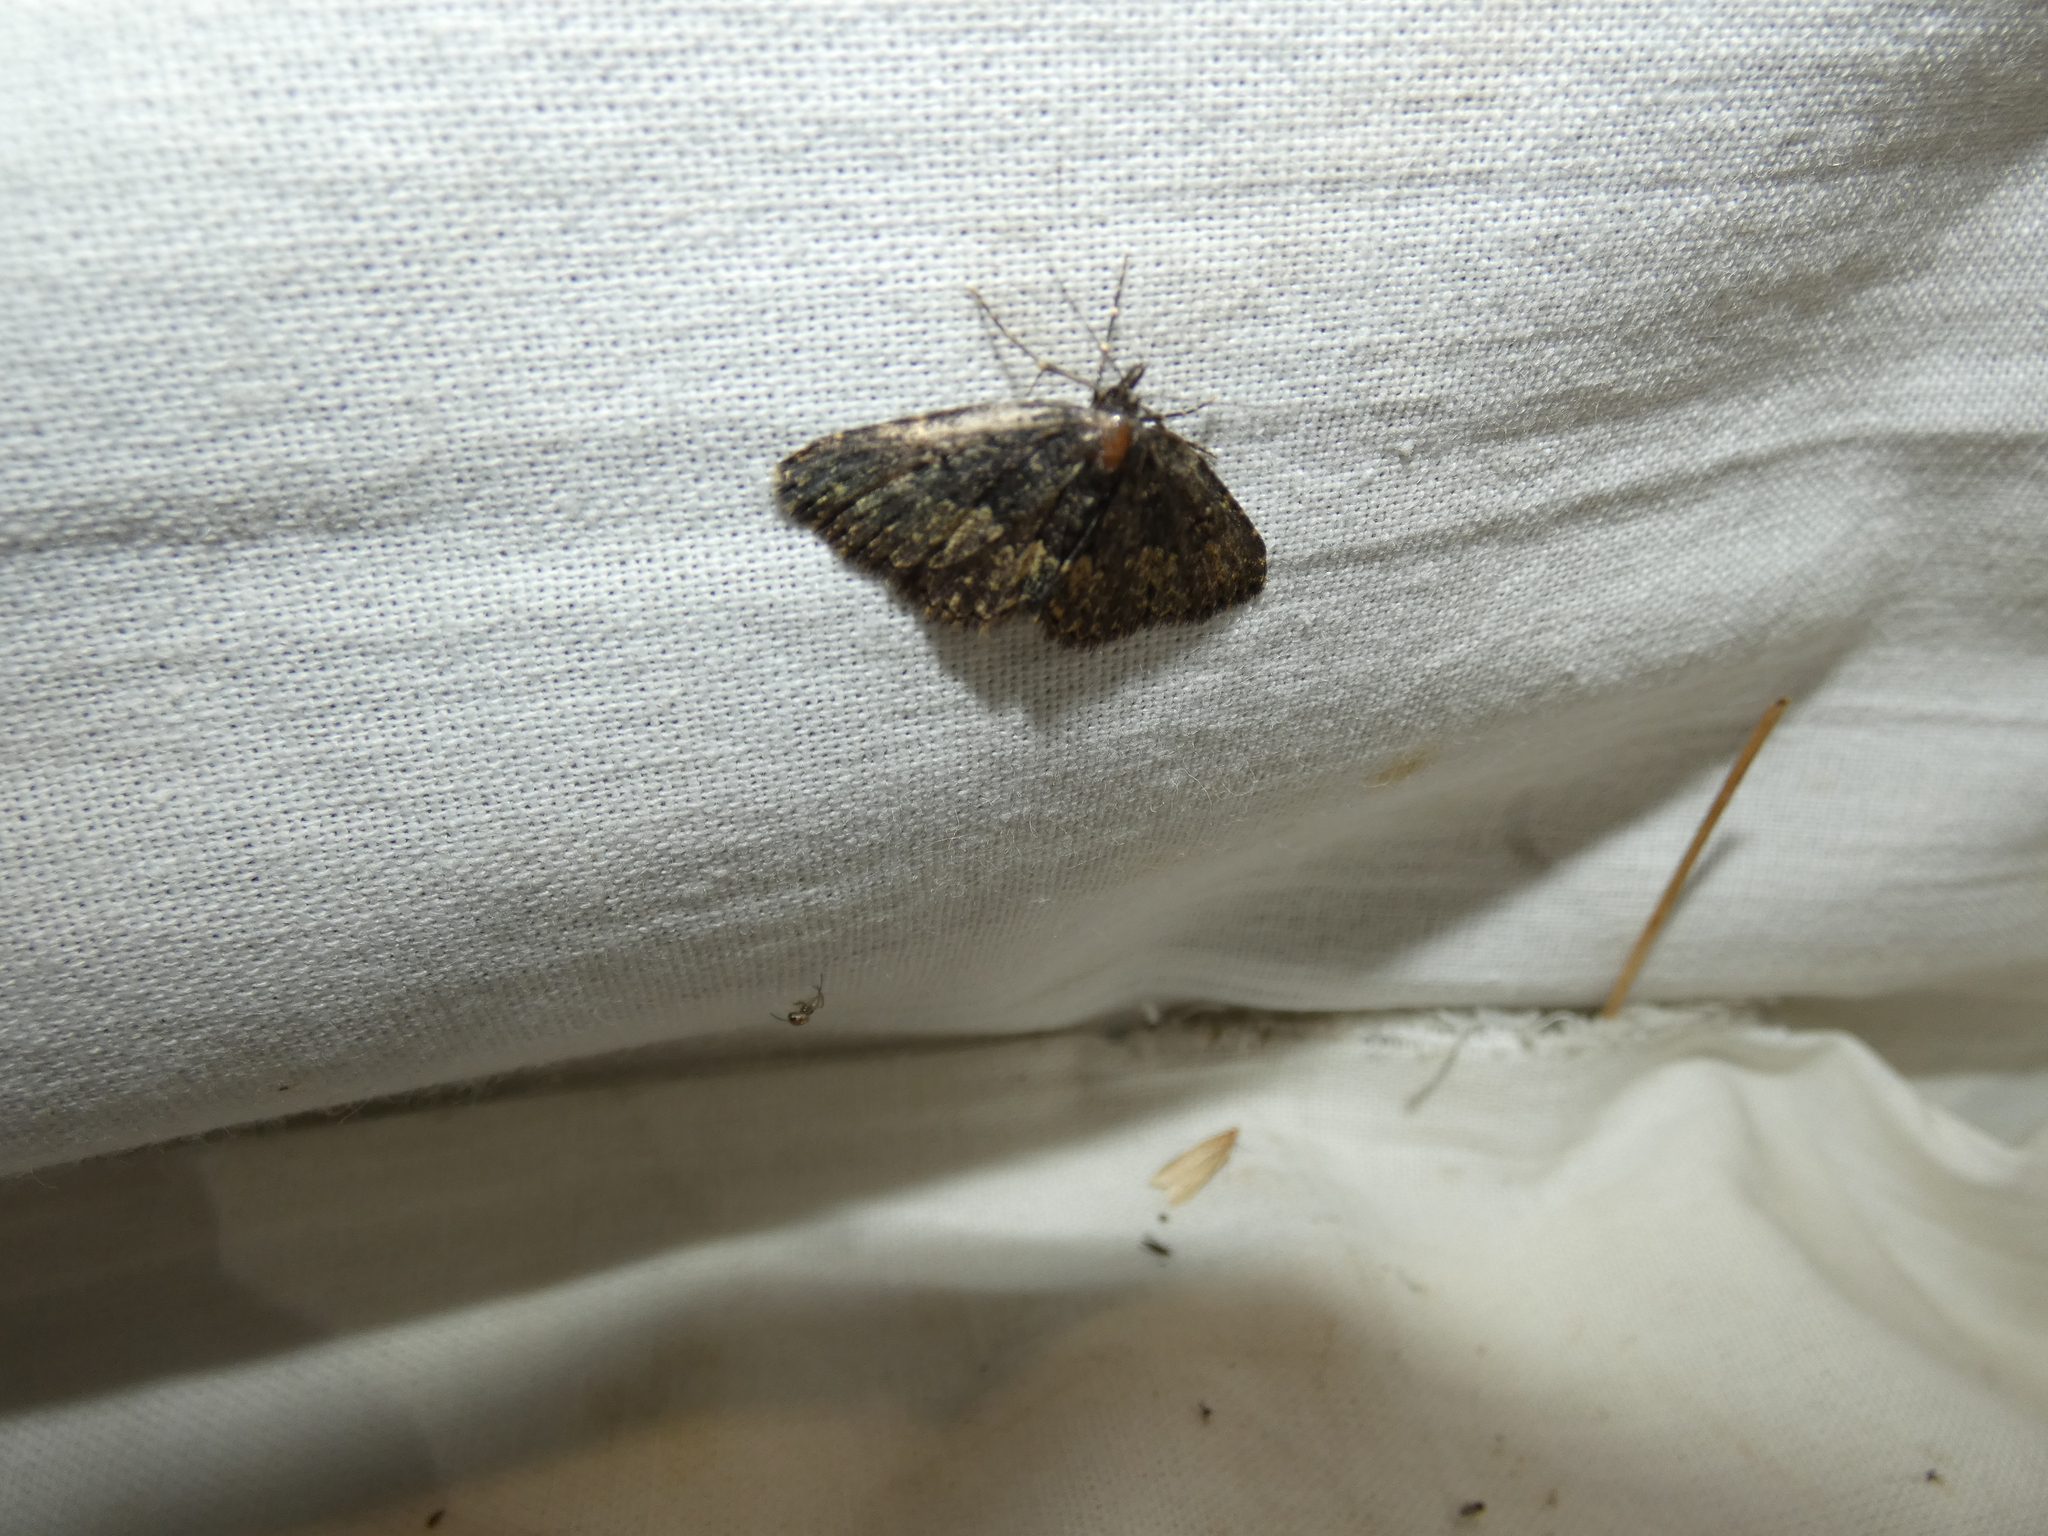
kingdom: Animalia
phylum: Arthropoda
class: Insecta
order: Lepidoptera
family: Erebidae
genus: Parascotia
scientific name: Parascotia fuliginaria
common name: Waved black
